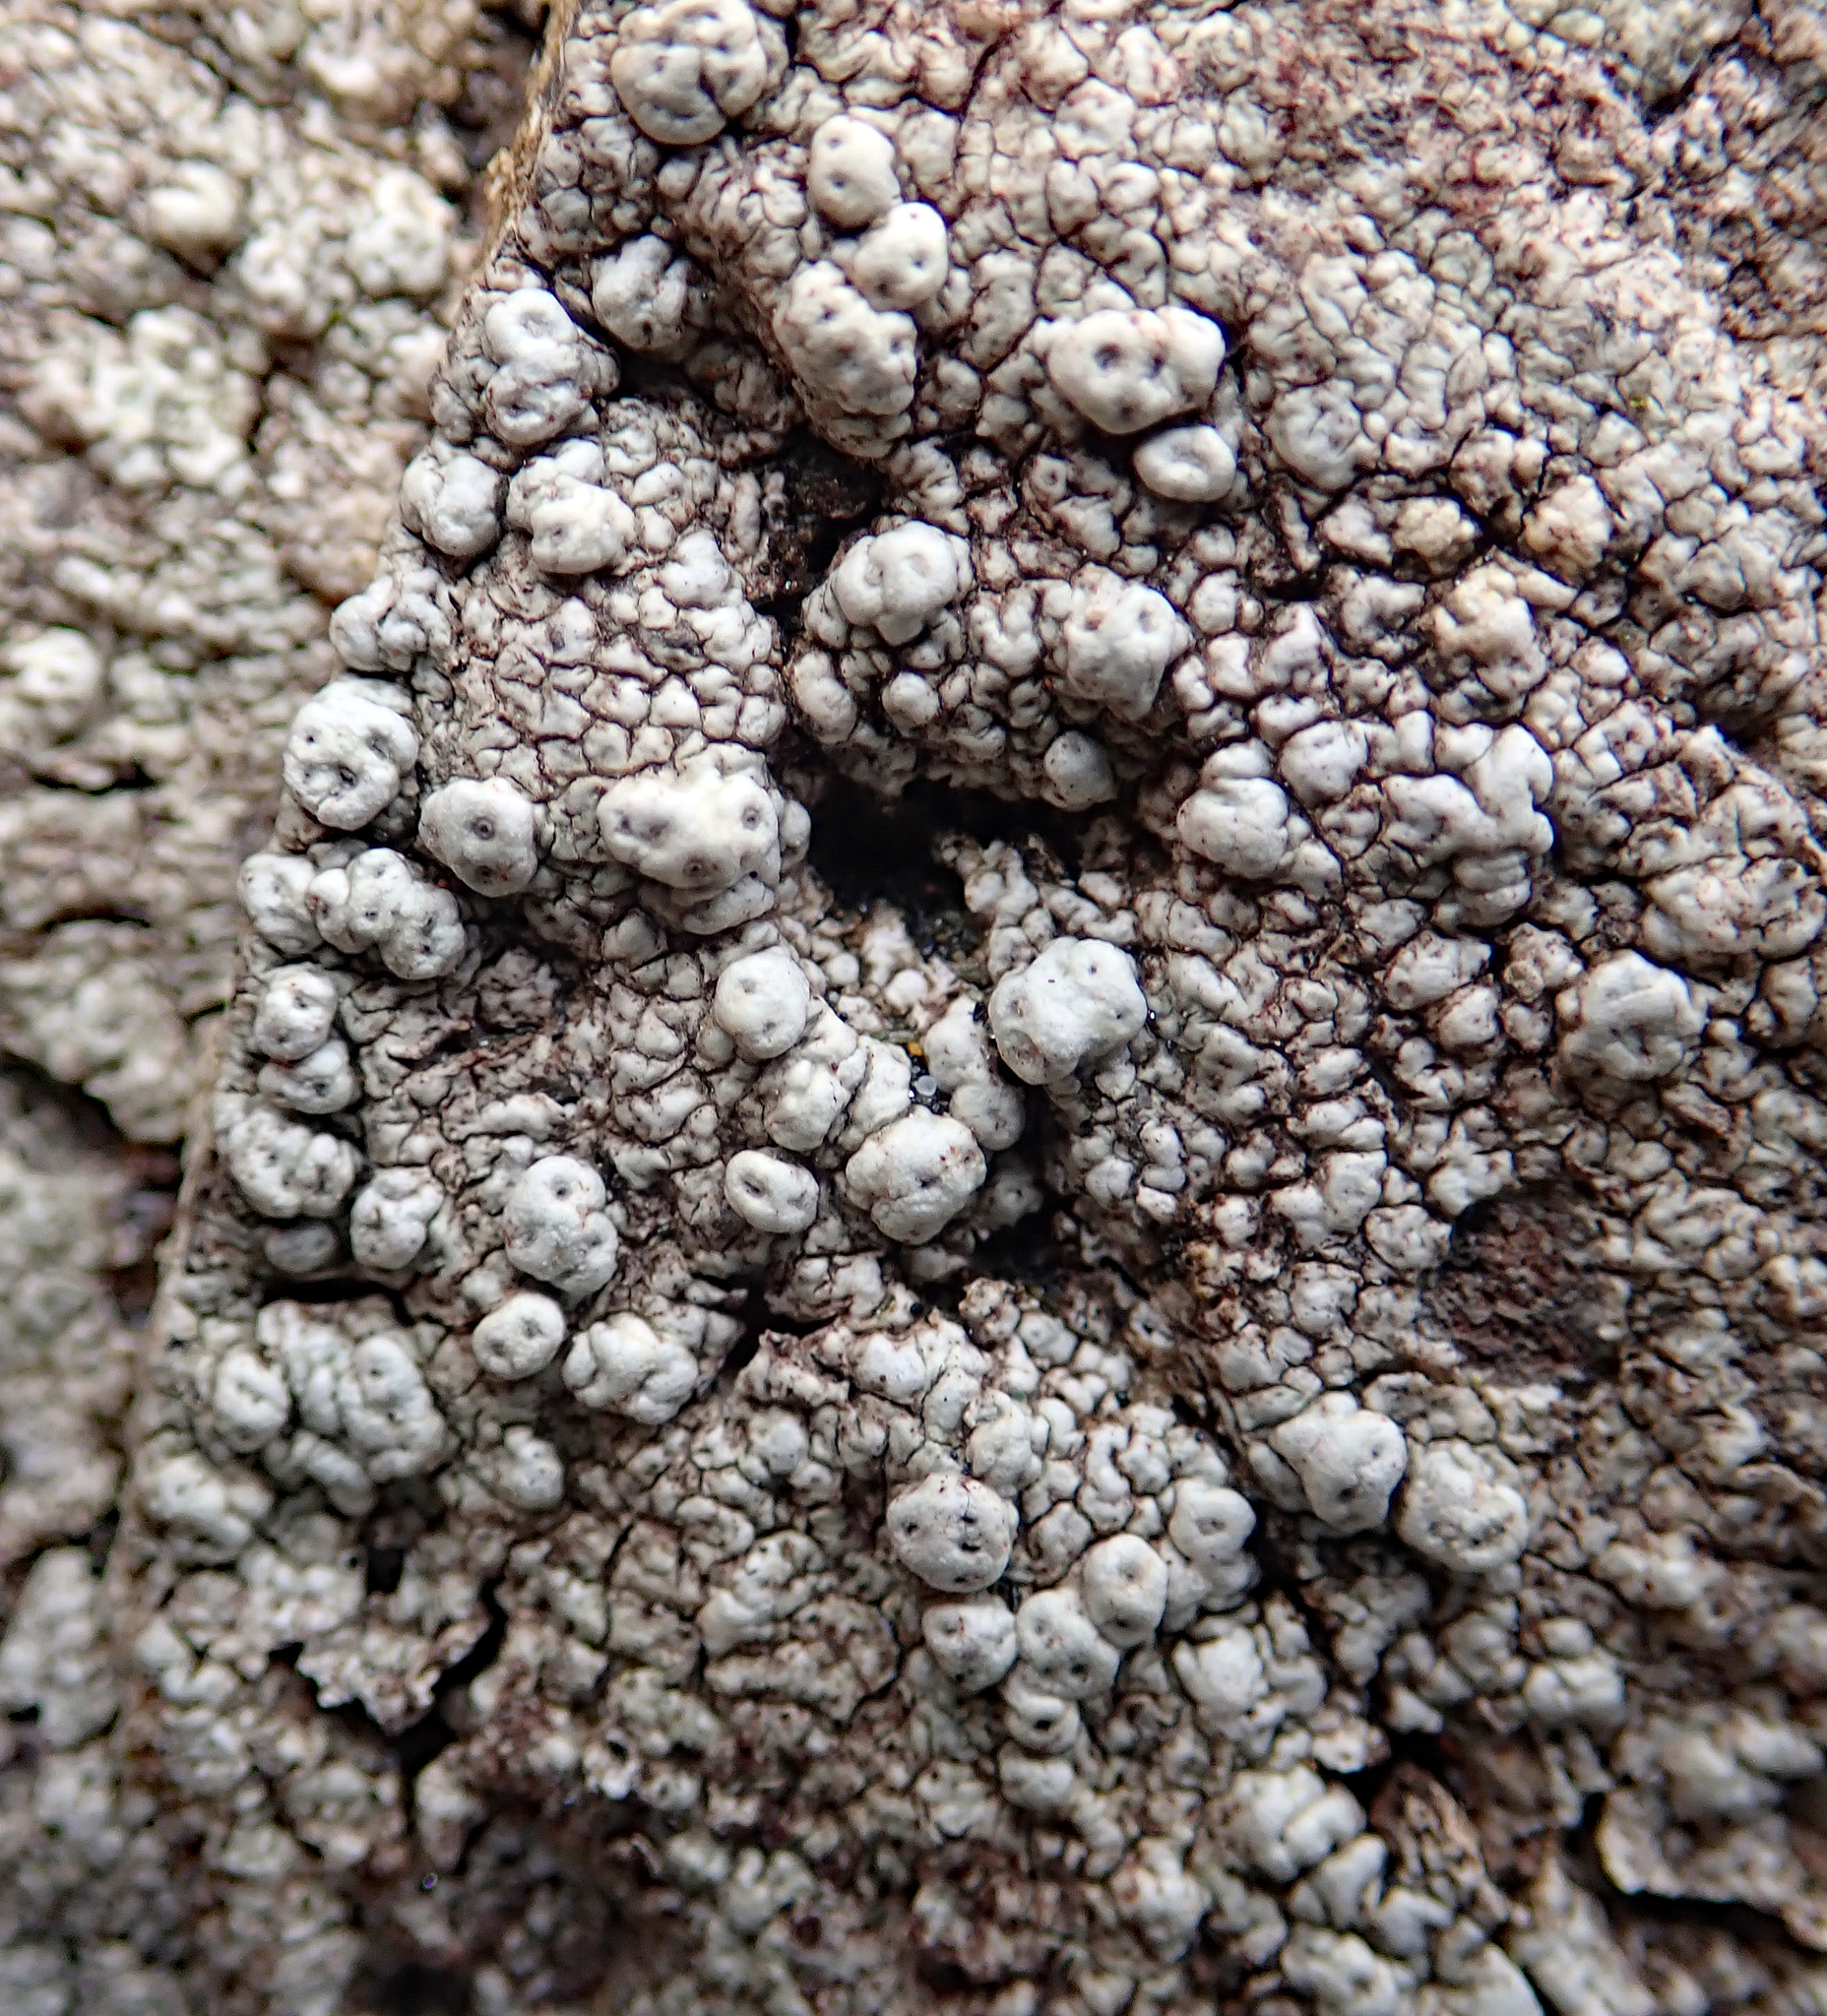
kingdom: Fungi
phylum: Ascomycota
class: Lecanoromycetes
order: Pertusariales
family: Pertusariaceae
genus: Pertusaria
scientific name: Pertusaria
